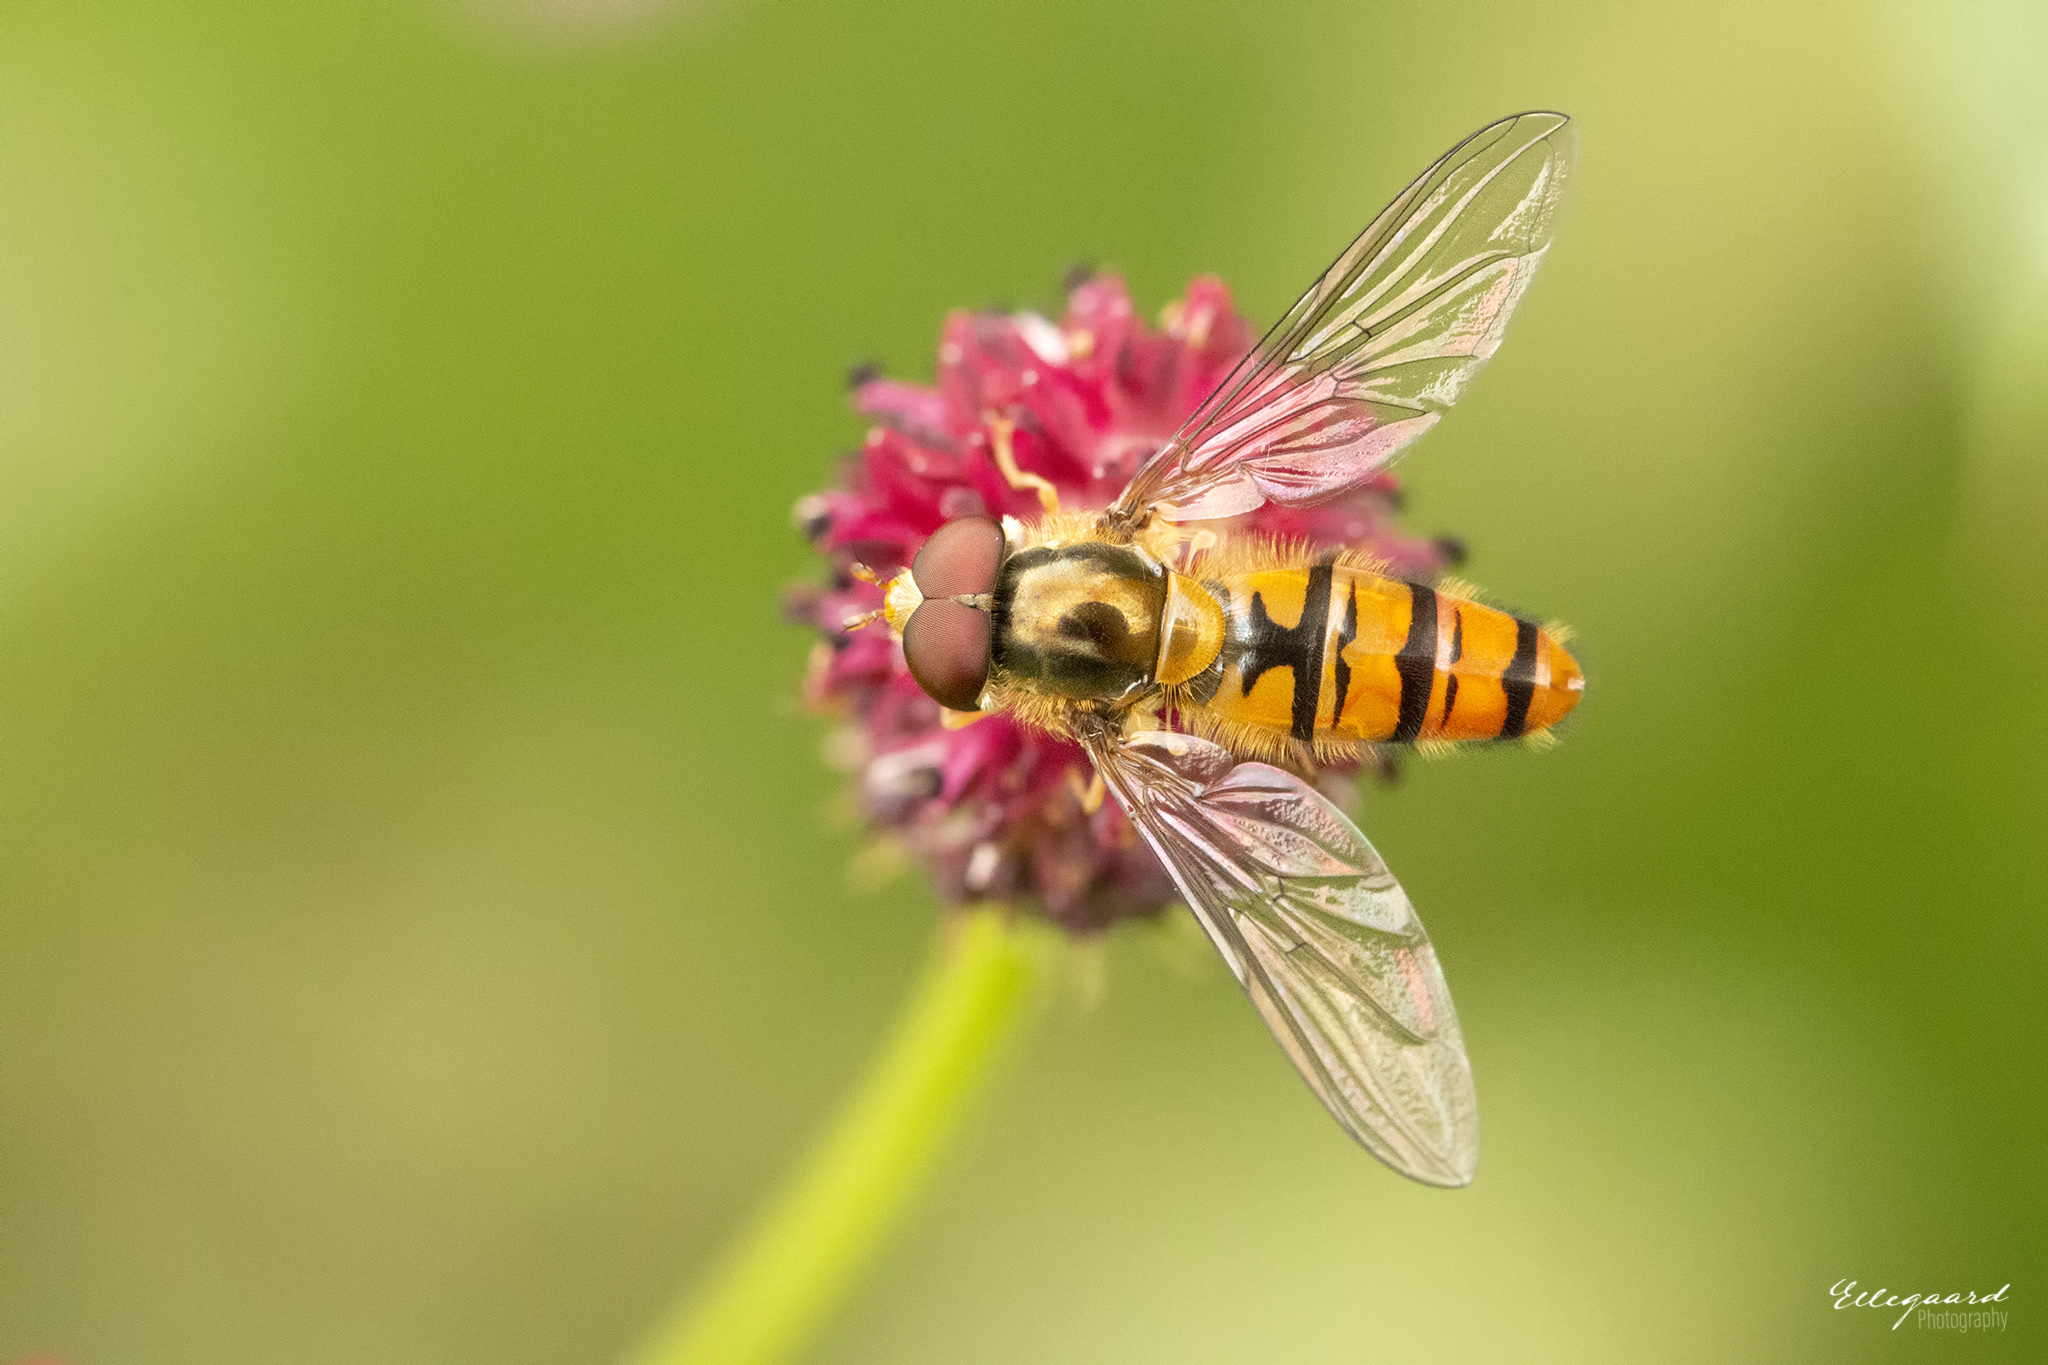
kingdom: Animalia
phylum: Arthropoda
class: Insecta
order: Diptera
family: Syrphidae
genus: Episyrphus
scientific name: Episyrphus balteatus
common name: Marmalade hoverfly
